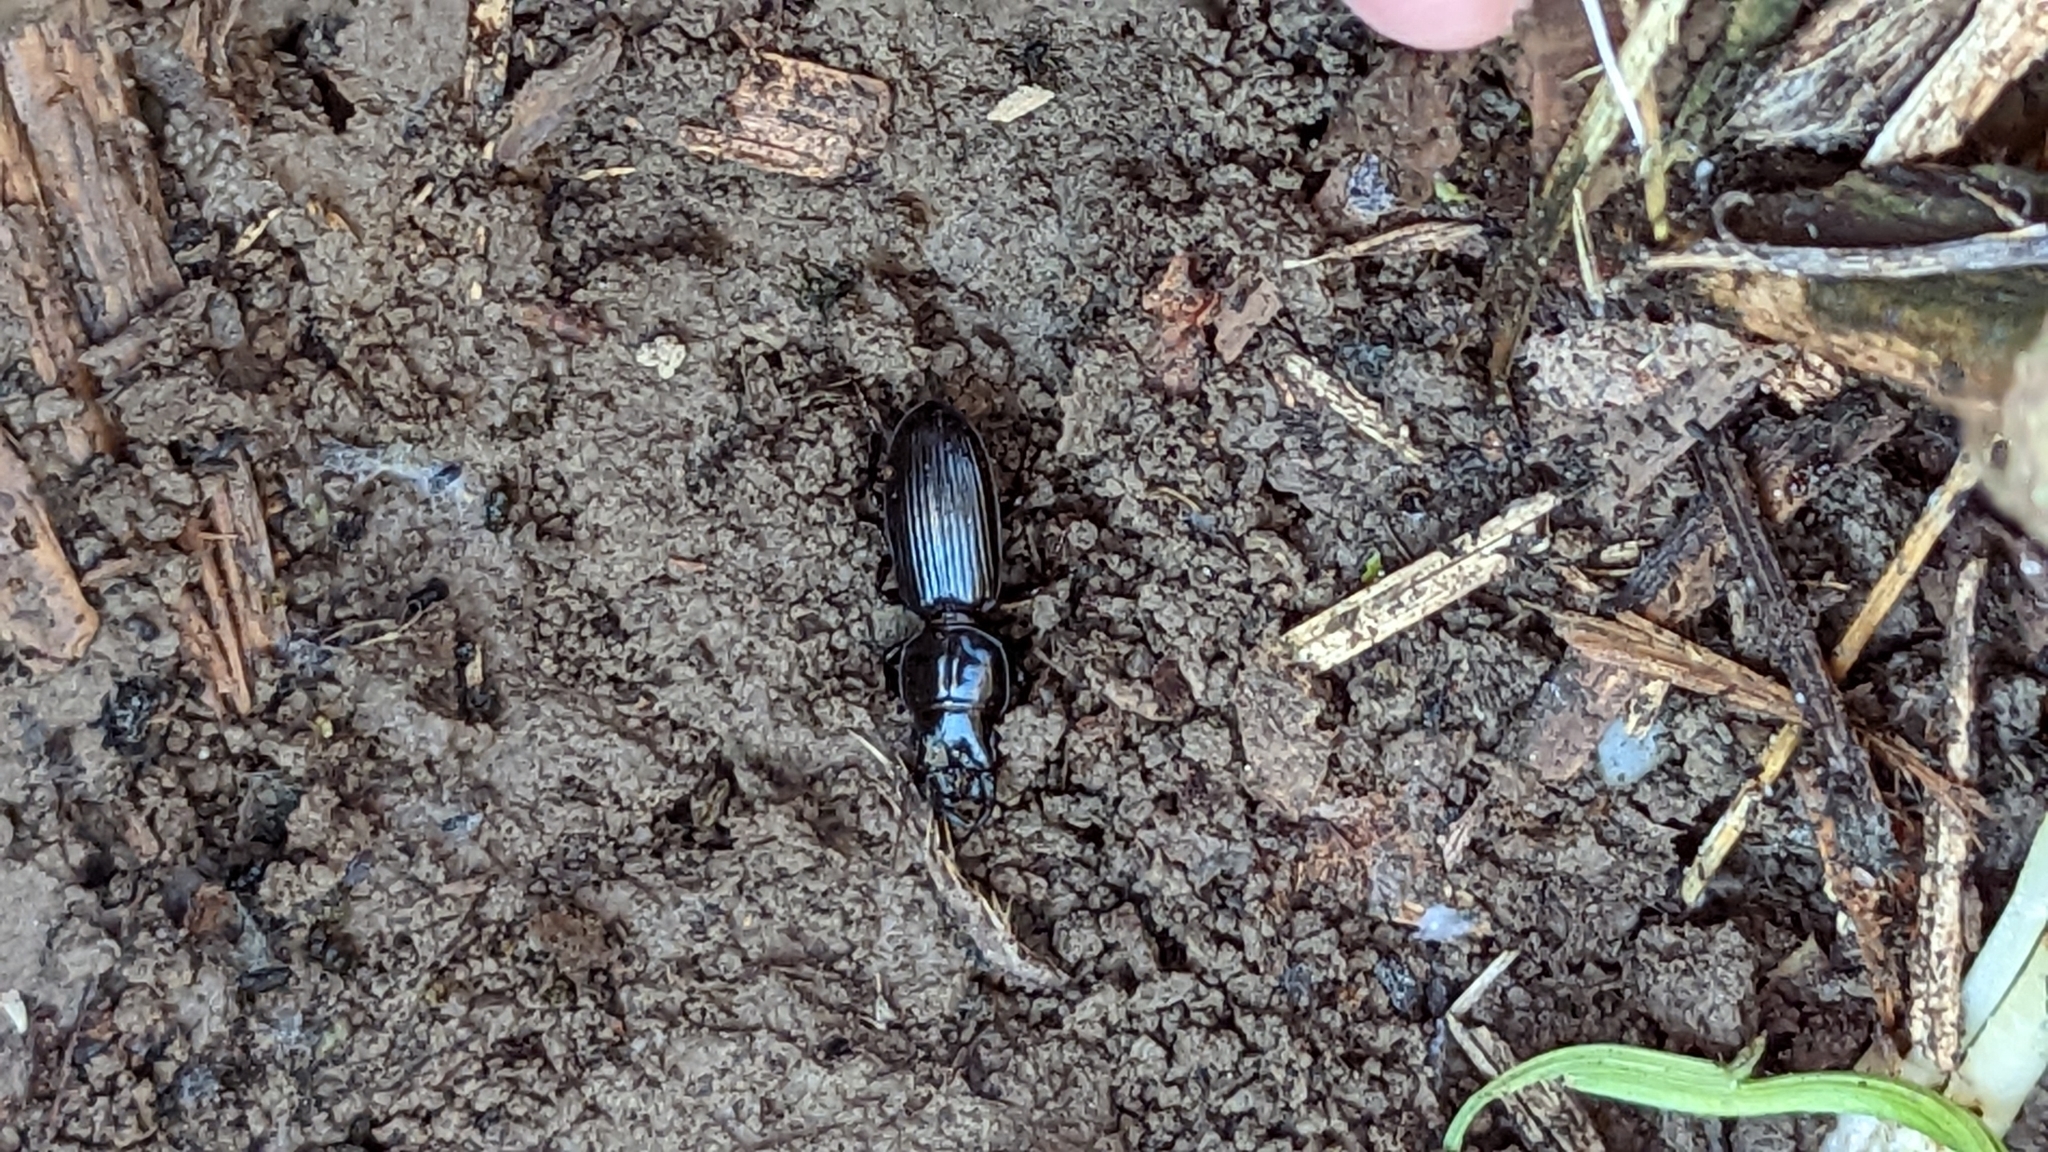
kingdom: Animalia
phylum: Arthropoda
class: Insecta
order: Coleoptera
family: Carabidae
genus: Scarites
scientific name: Scarites subterraneus
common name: Big-headed ground beetle
